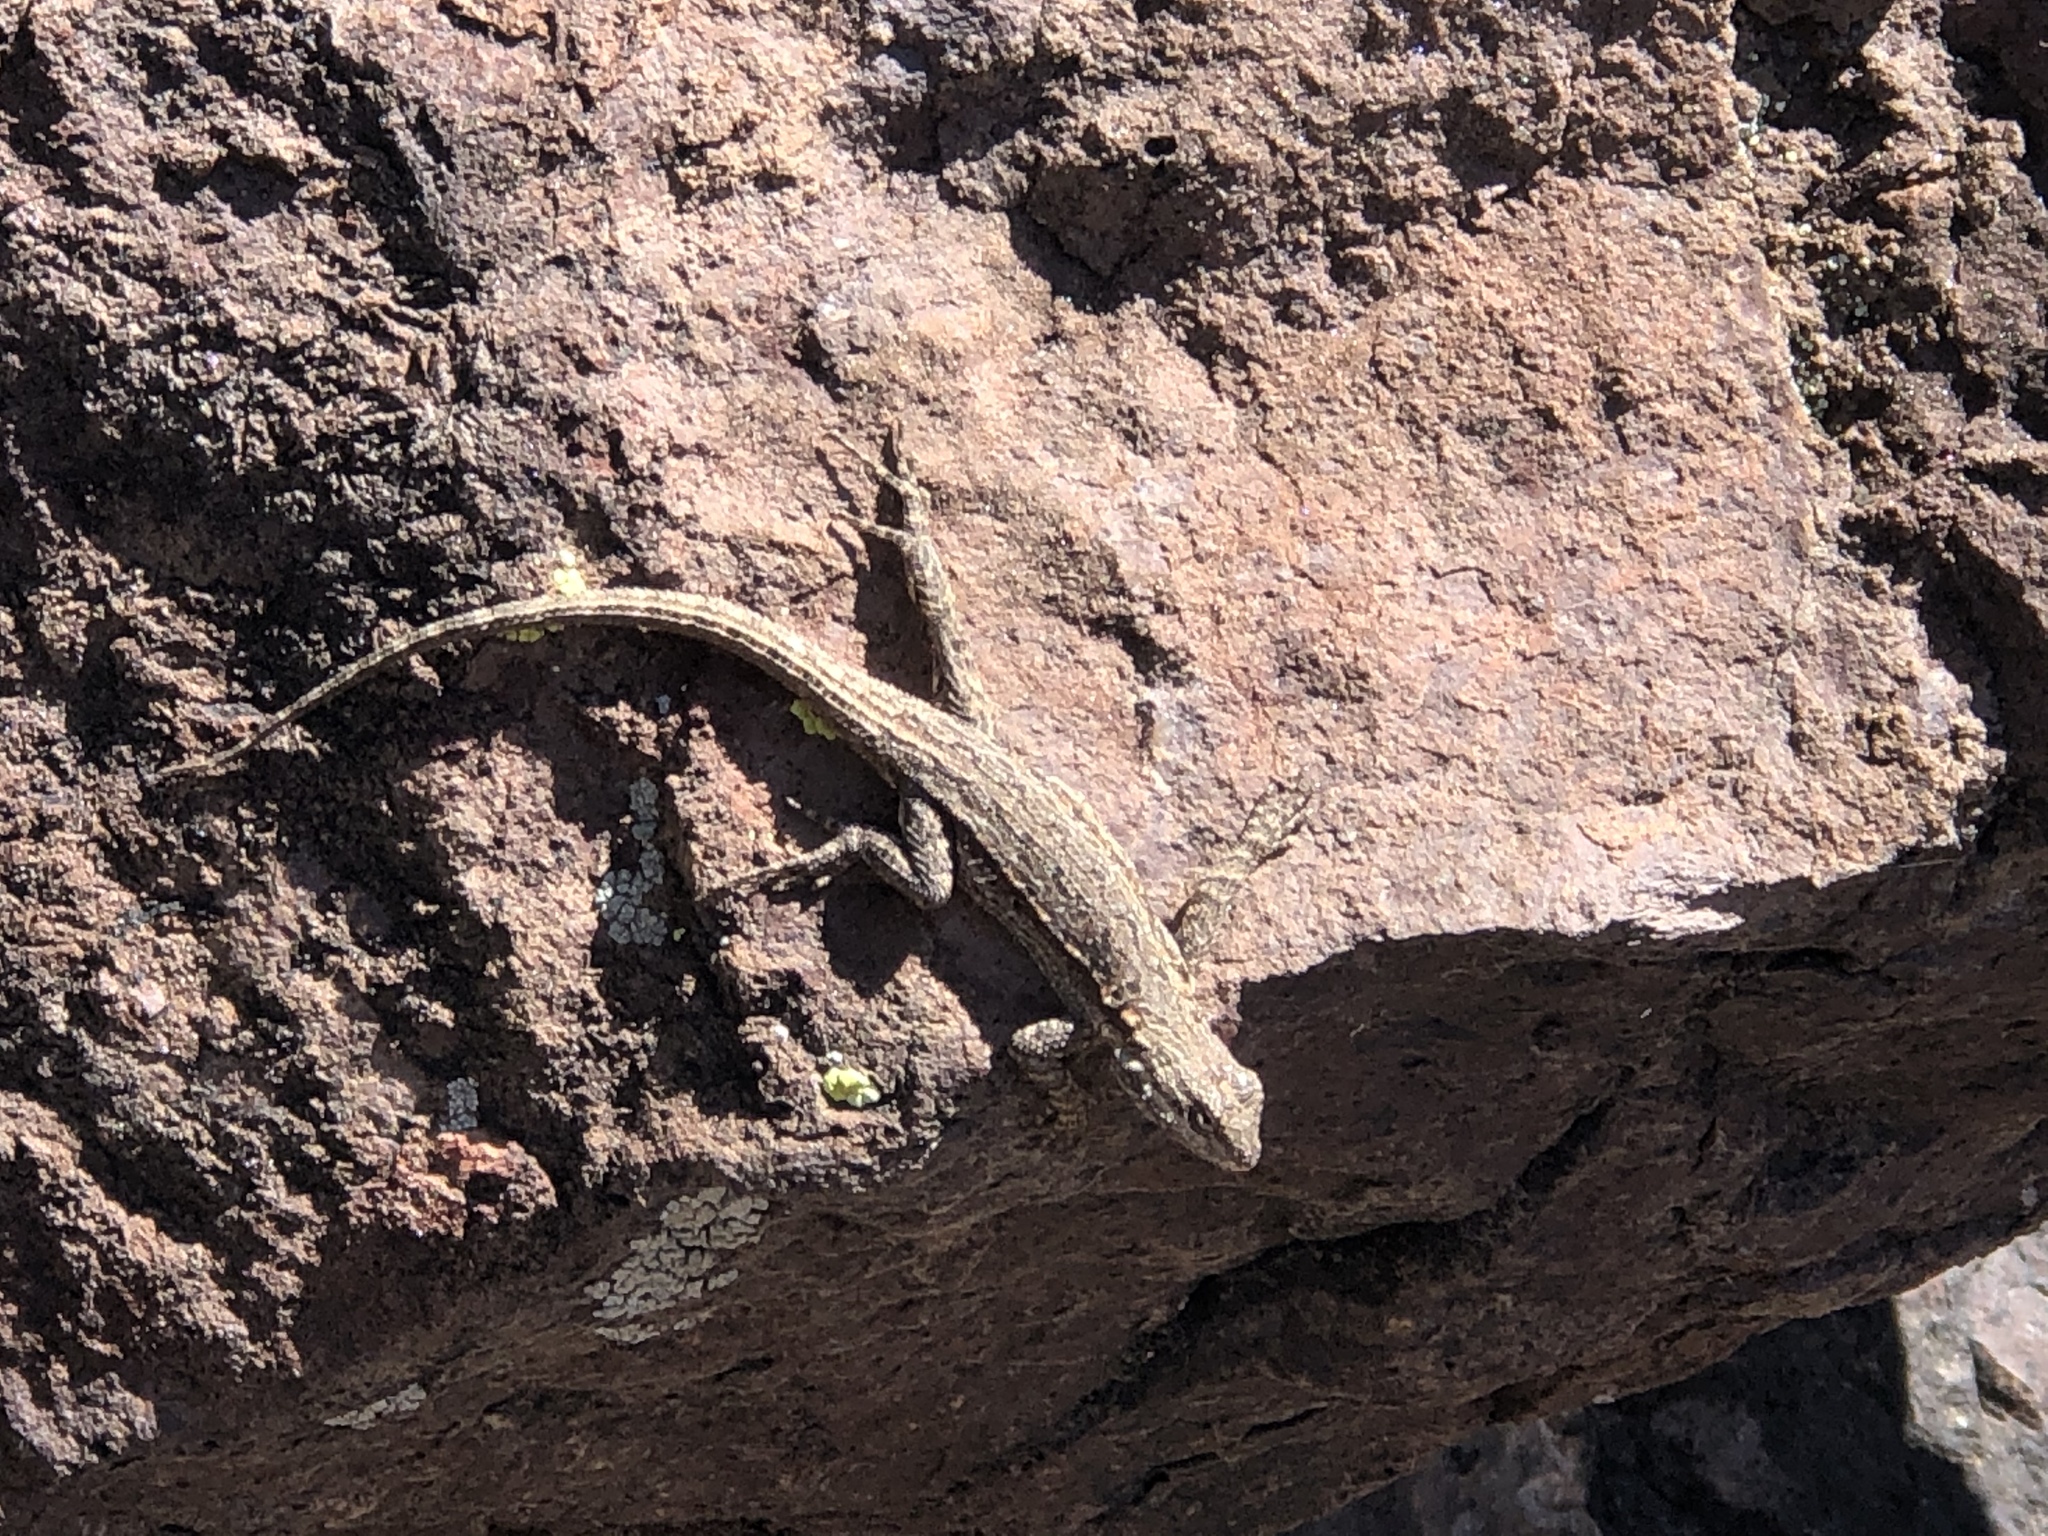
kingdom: Animalia
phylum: Chordata
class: Squamata
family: Phrynosomatidae
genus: Urosaurus
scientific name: Urosaurus ornatus
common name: Ornate tree lizard
